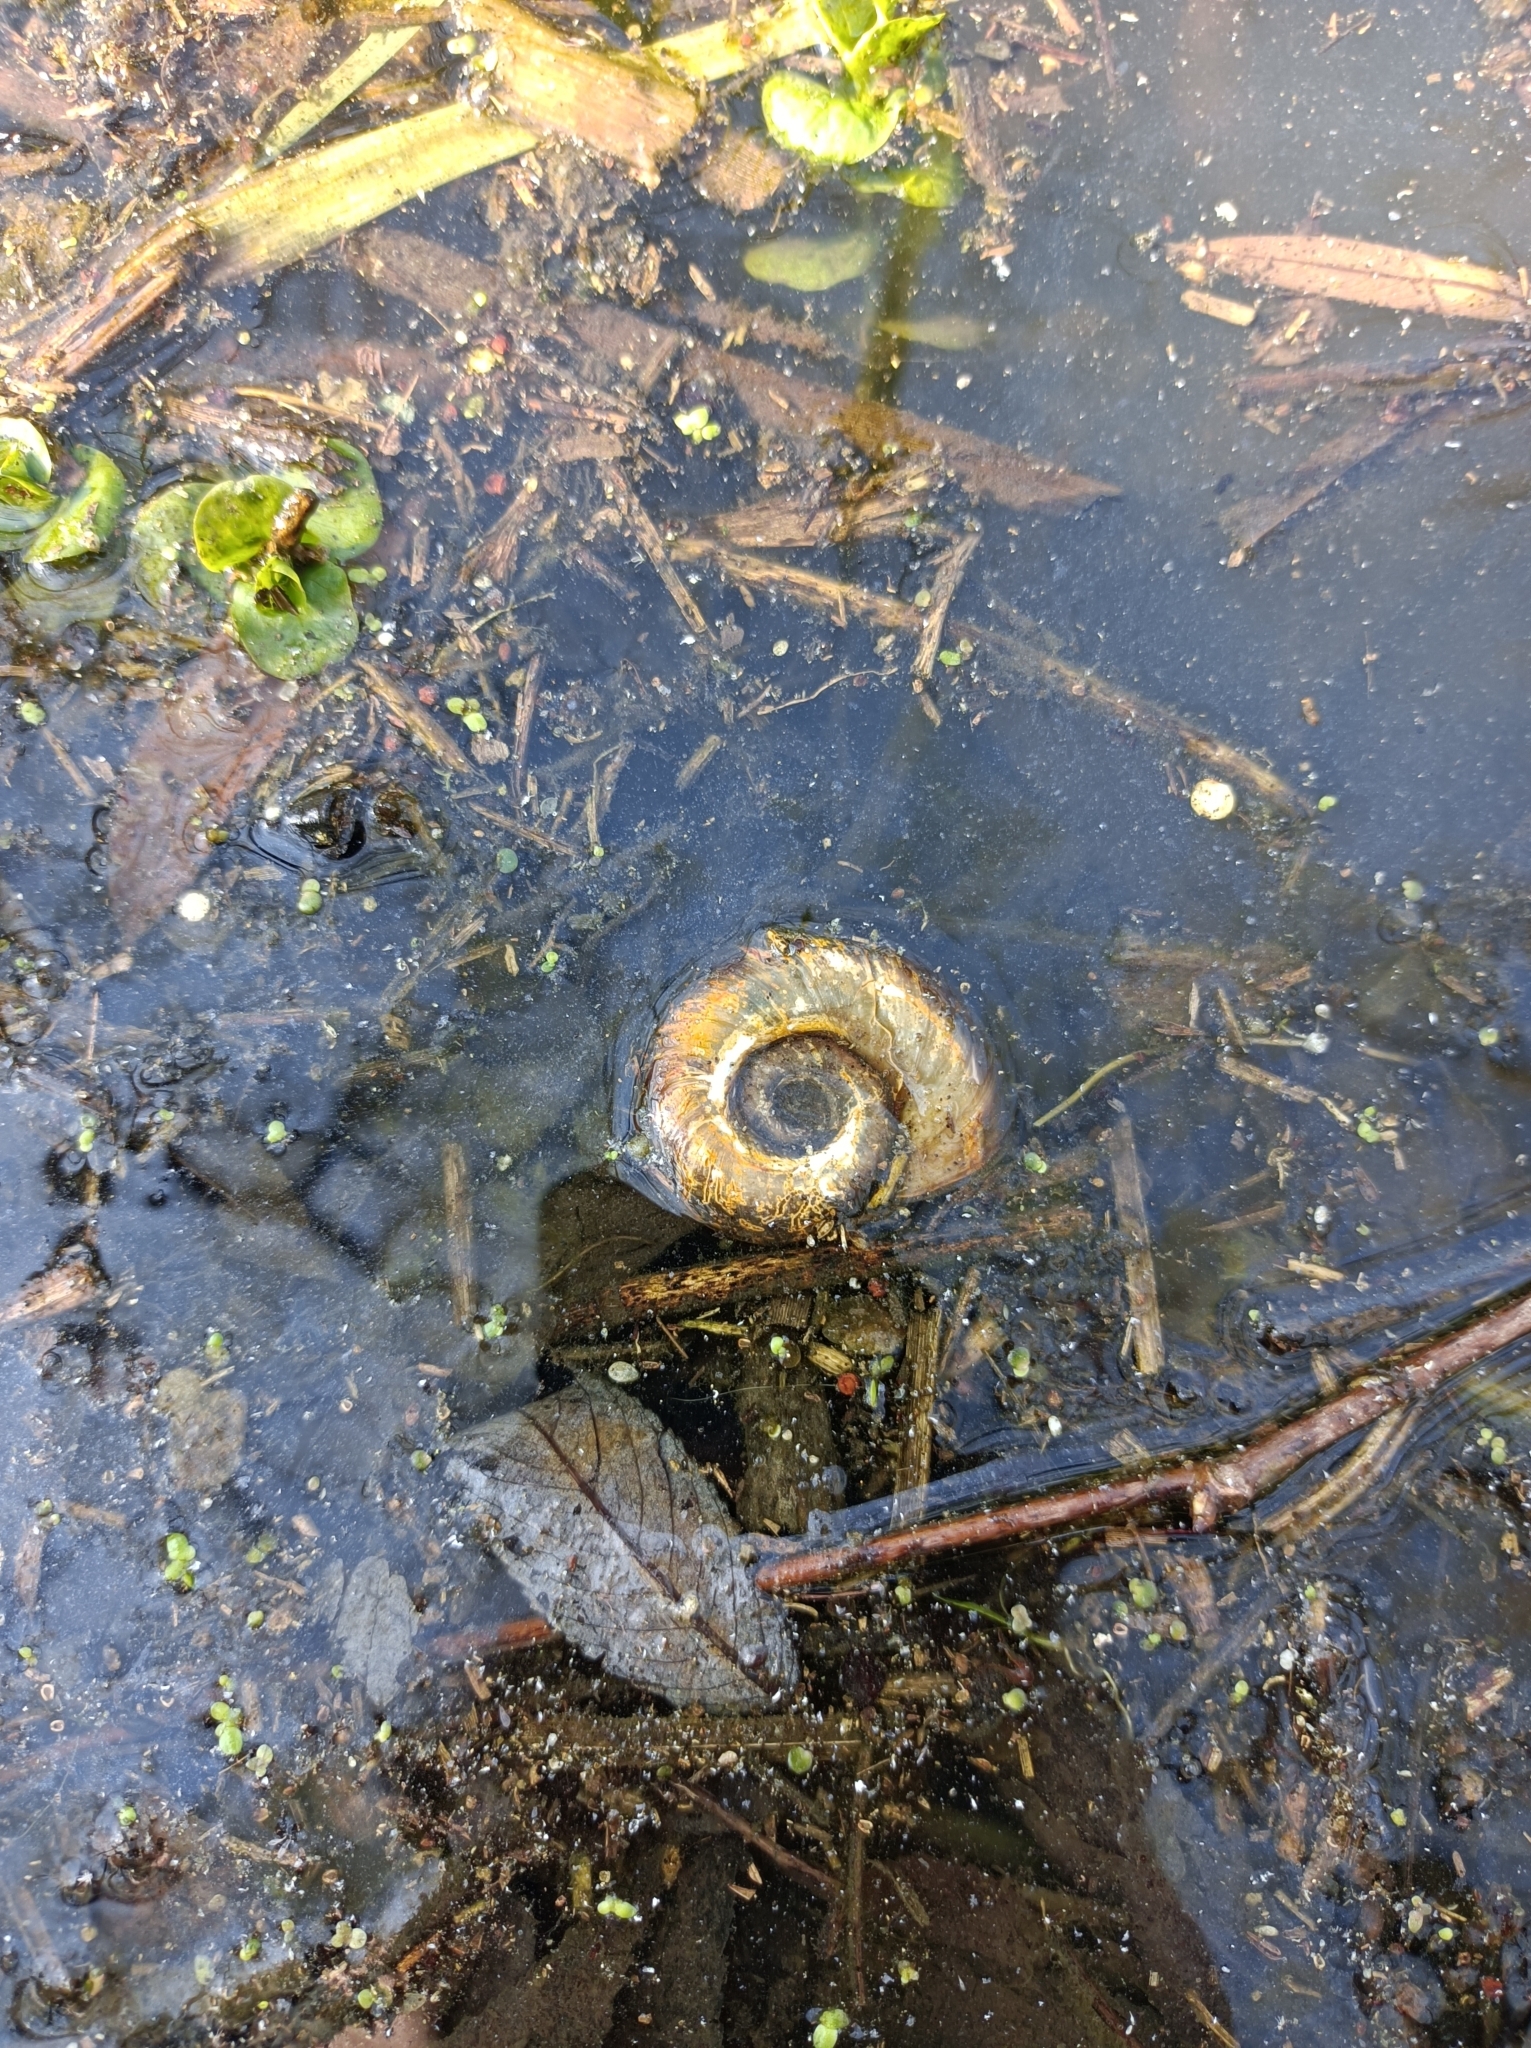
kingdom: Animalia
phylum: Mollusca
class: Gastropoda
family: Planorbidae
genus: Planorbarius
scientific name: Planorbarius corneus
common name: Great ramshorn
